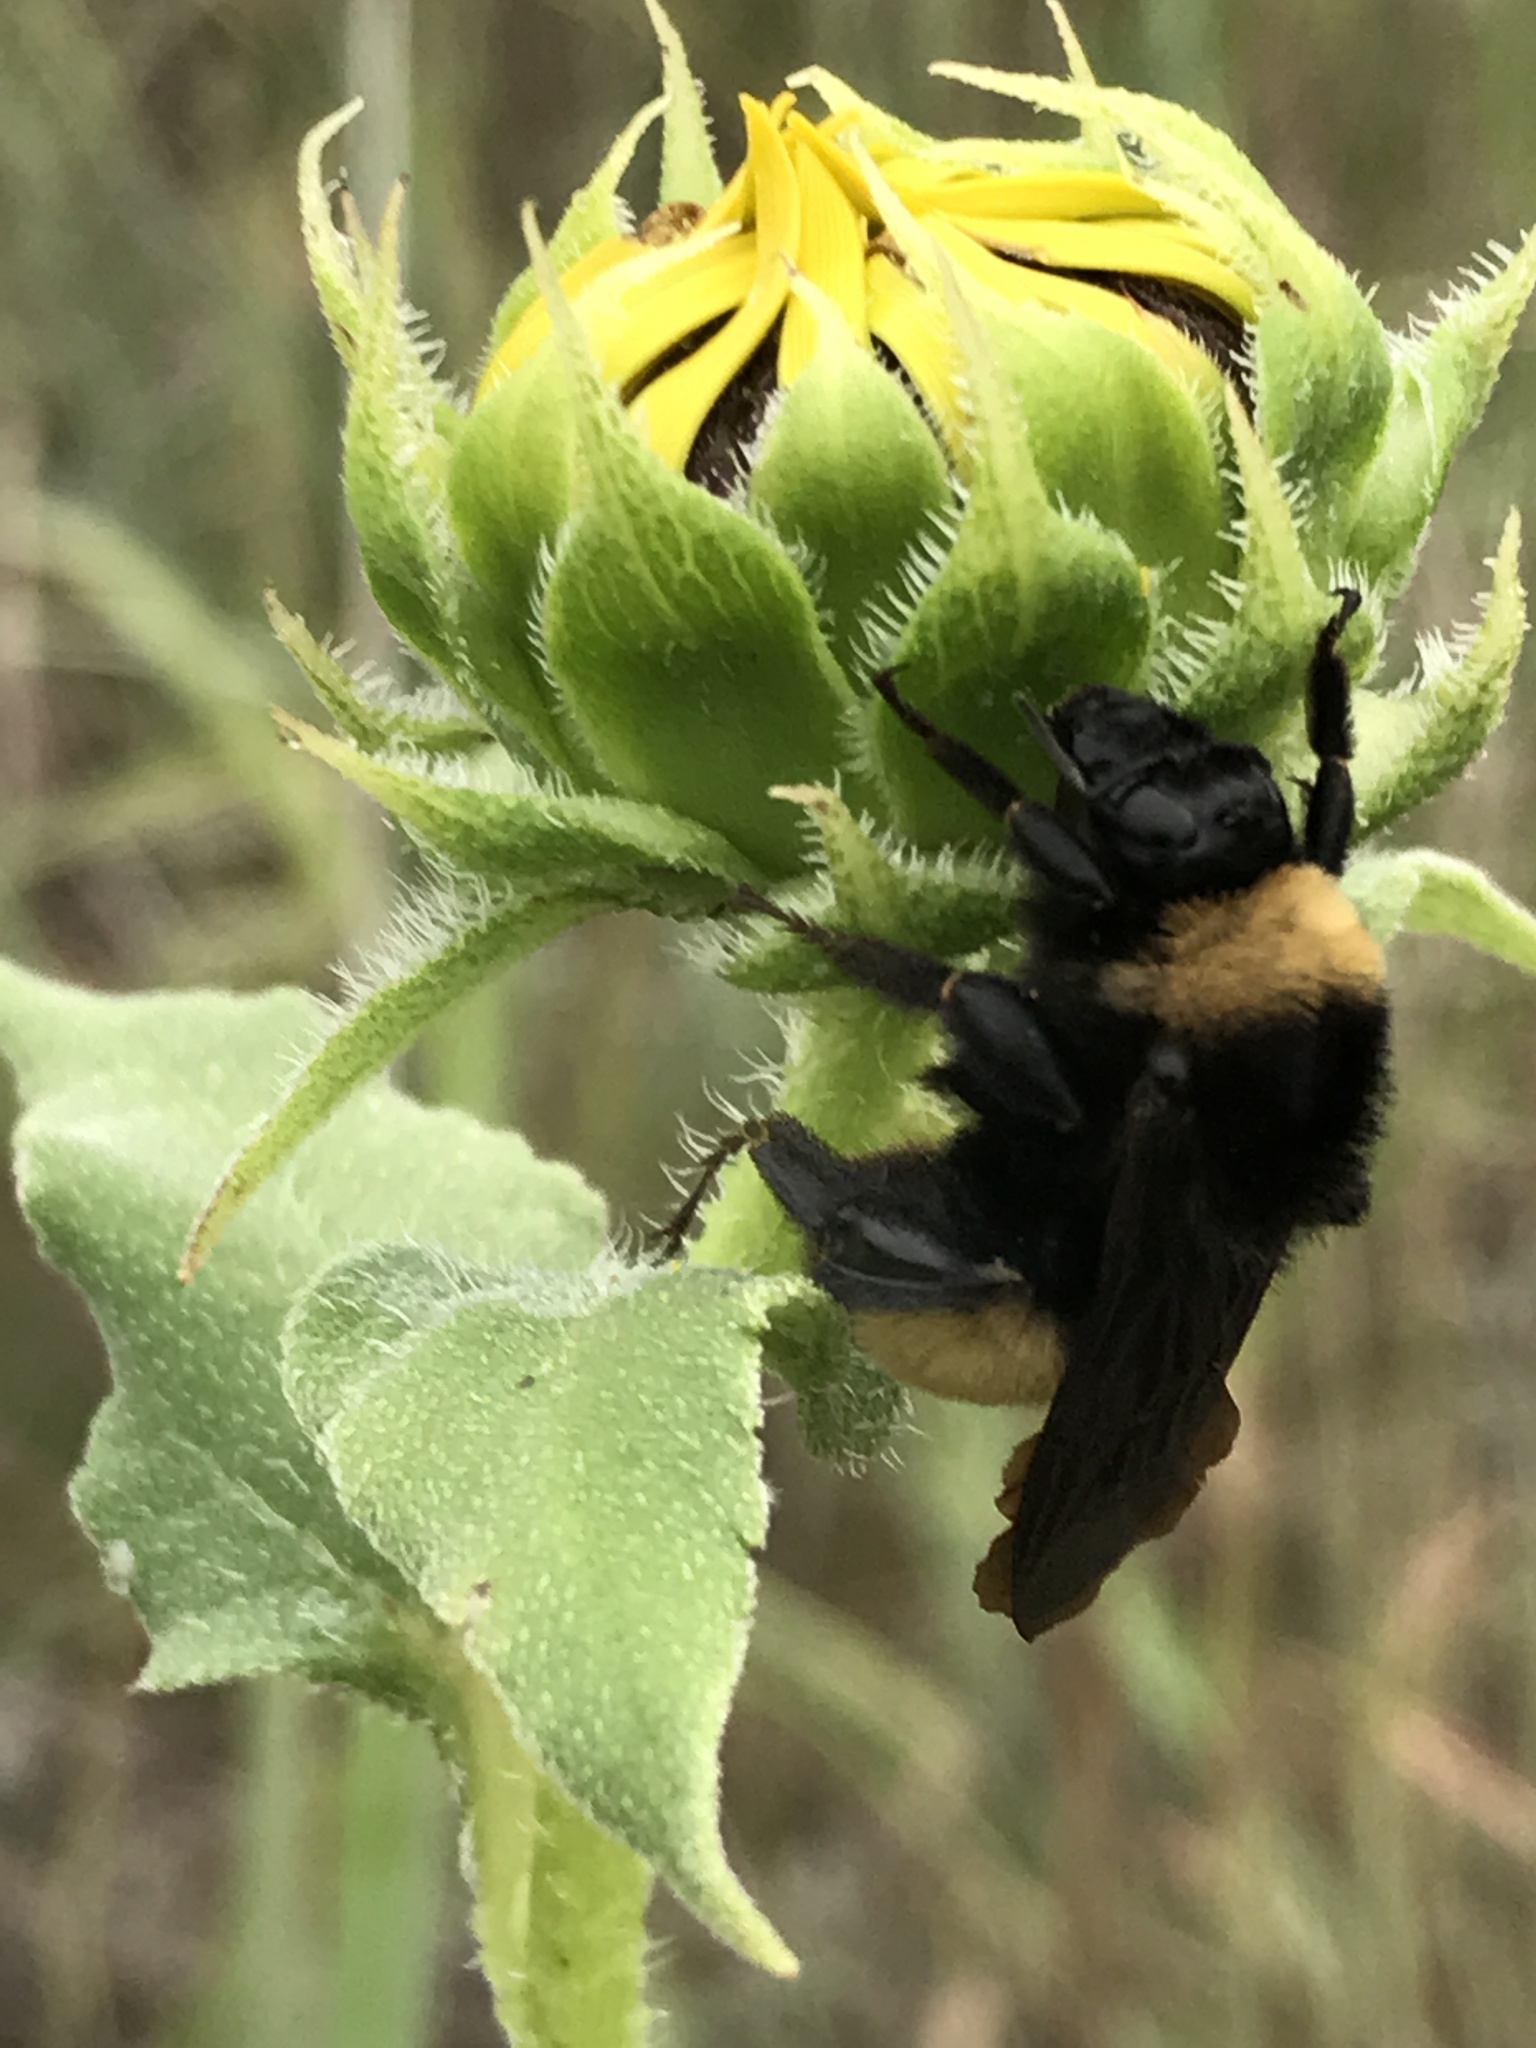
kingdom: Animalia
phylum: Arthropoda
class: Insecta
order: Hymenoptera
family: Apidae
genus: Bombus
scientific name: Bombus pensylvanicus
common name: Bumble bee
